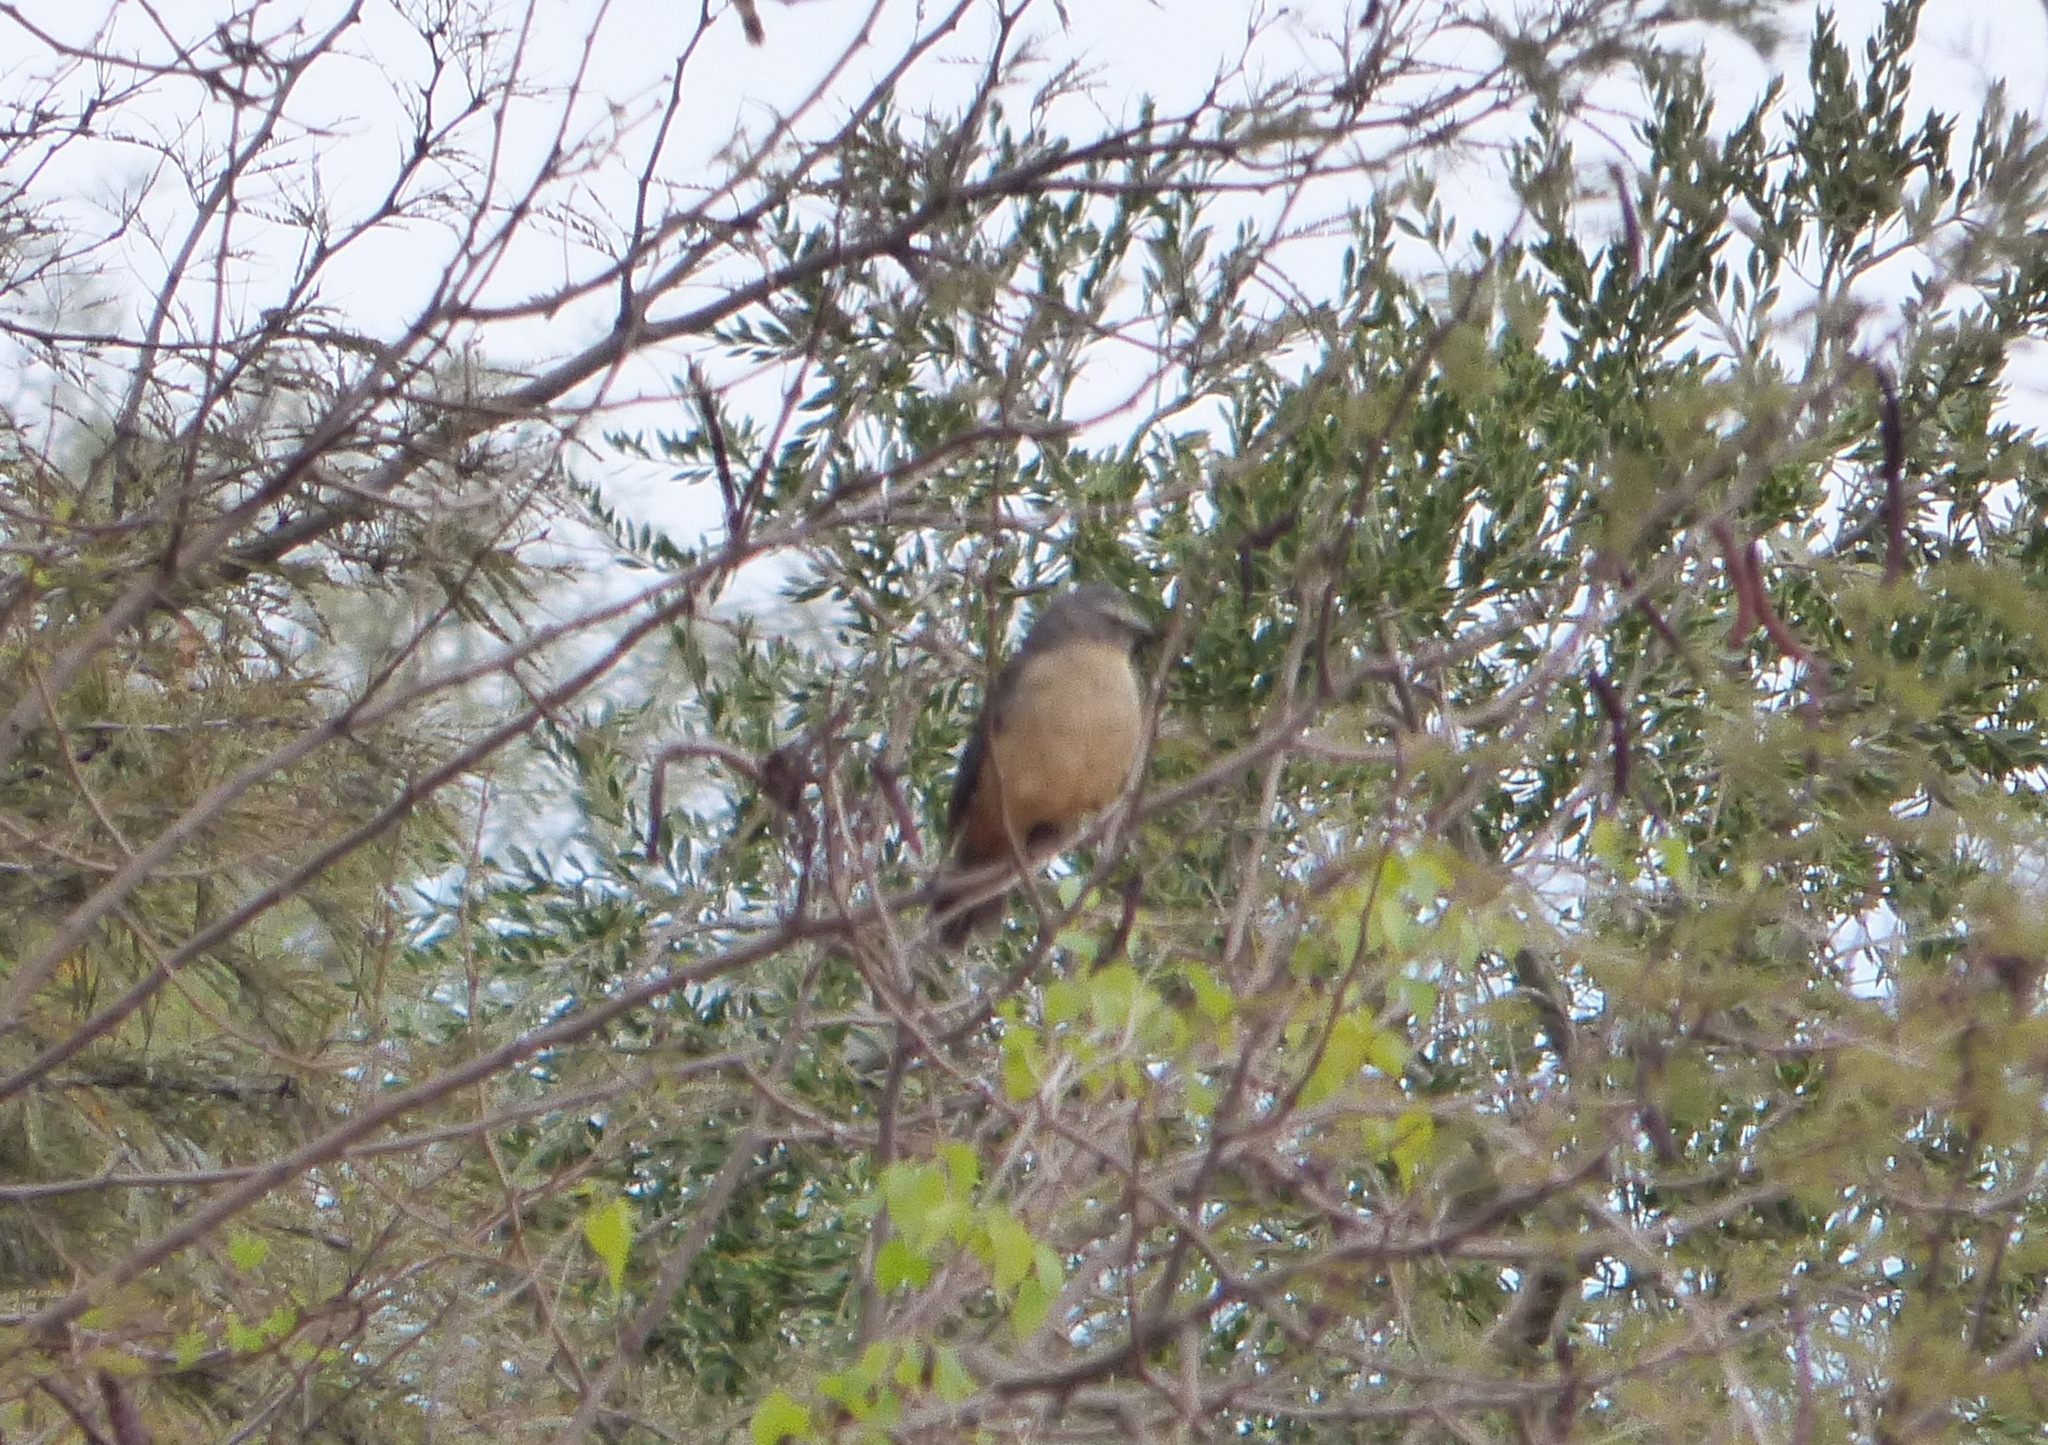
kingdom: Animalia
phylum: Chordata
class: Aves
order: Passeriformes
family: Thraupidae
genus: Saltator
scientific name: Saltator coerulescens
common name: Grayish saltator
